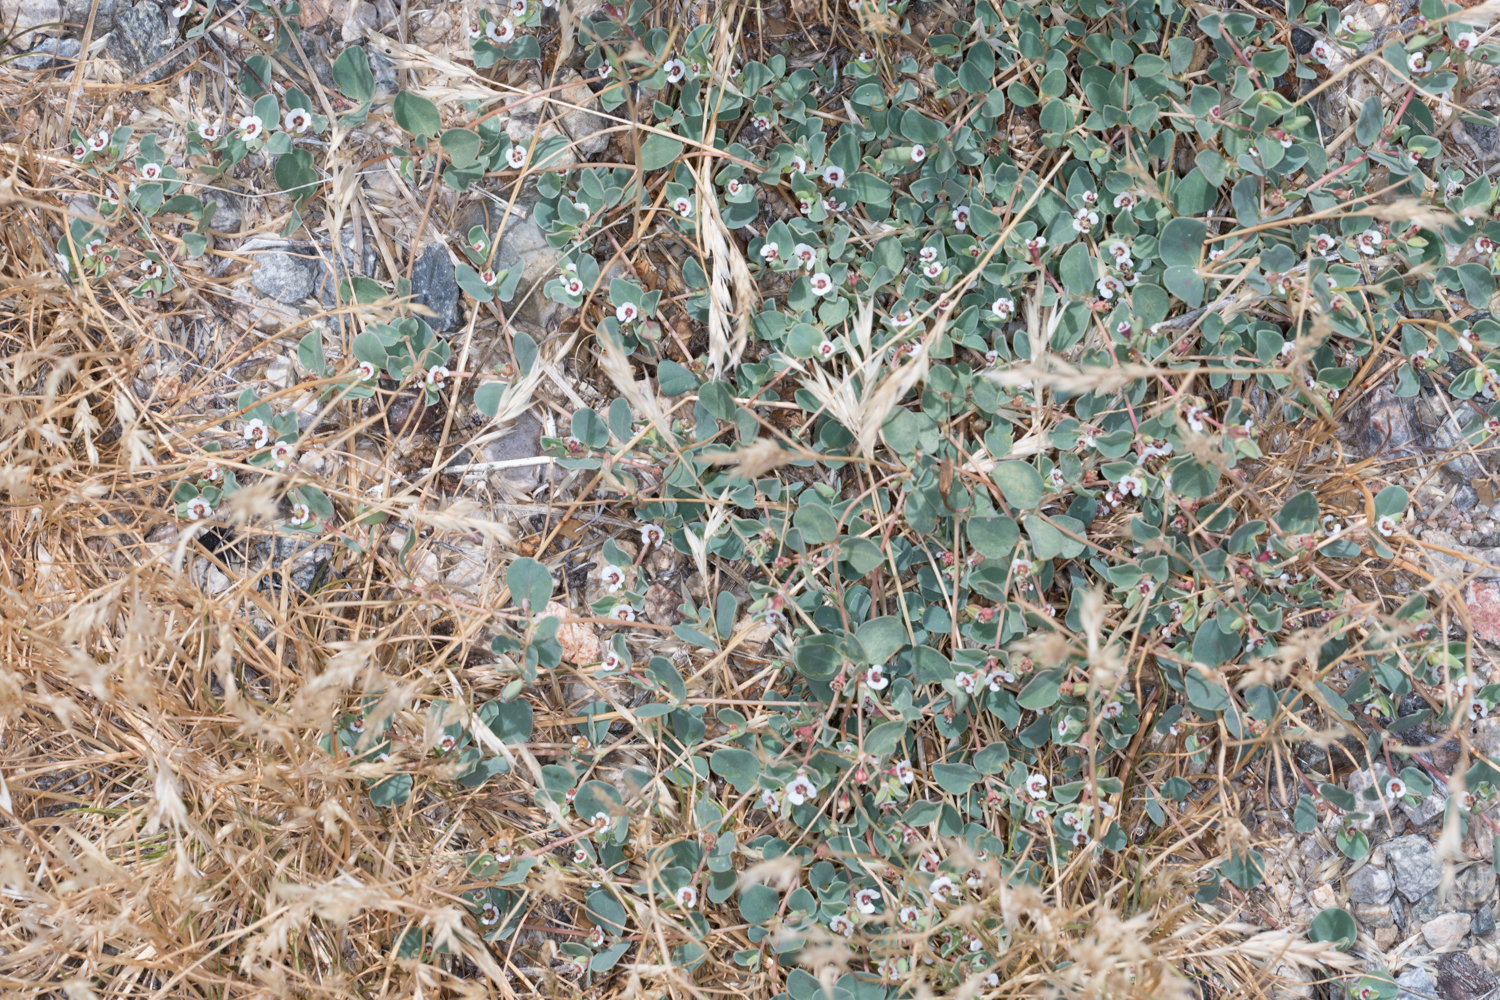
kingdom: Plantae
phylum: Tracheophyta
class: Magnoliopsida
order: Malpighiales
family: Euphorbiaceae
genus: Euphorbia
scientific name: Euphorbia albomarginata
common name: Whitemargin sandmat
